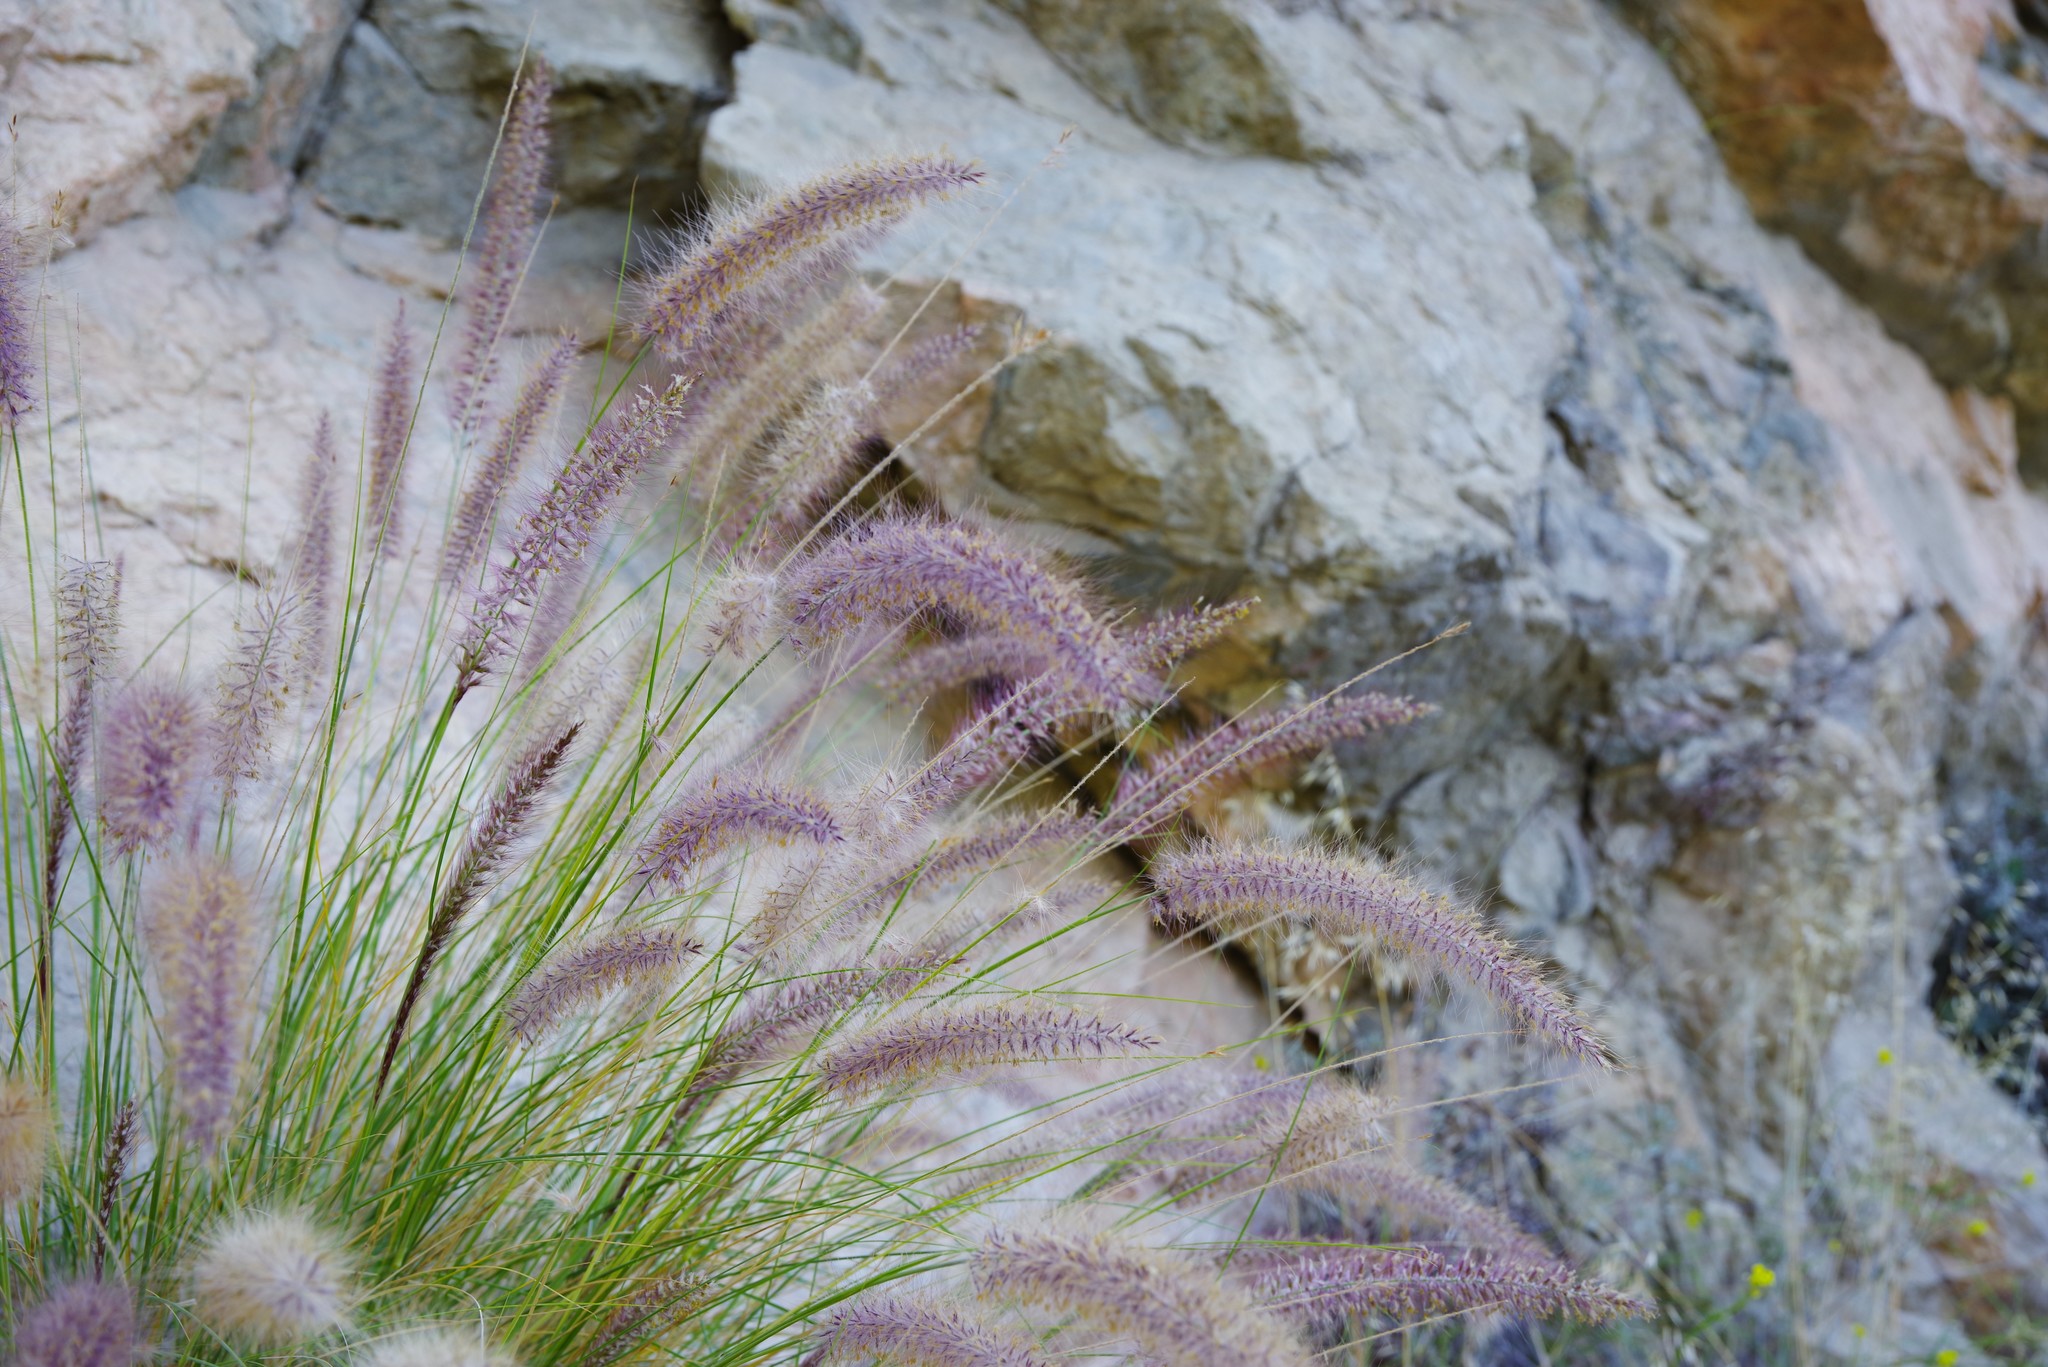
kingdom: Plantae
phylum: Tracheophyta
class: Liliopsida
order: Poales
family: Poaceae
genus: Cenchrus
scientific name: Cenchrus setaceus
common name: Crimson fountaingrass
